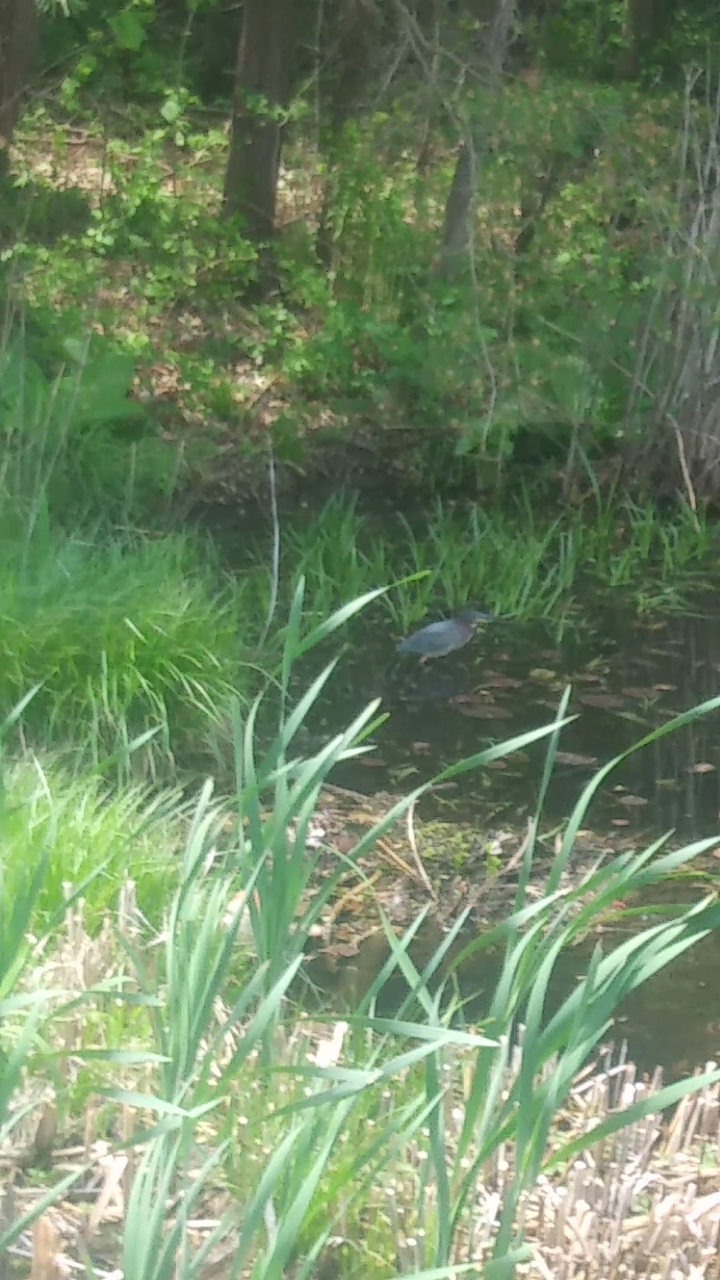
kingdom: Animalia
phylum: Chordata
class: Aves
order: Pelecaniformes
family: Ardeidae
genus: Butorides
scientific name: Butorides virescens
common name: Green heron
